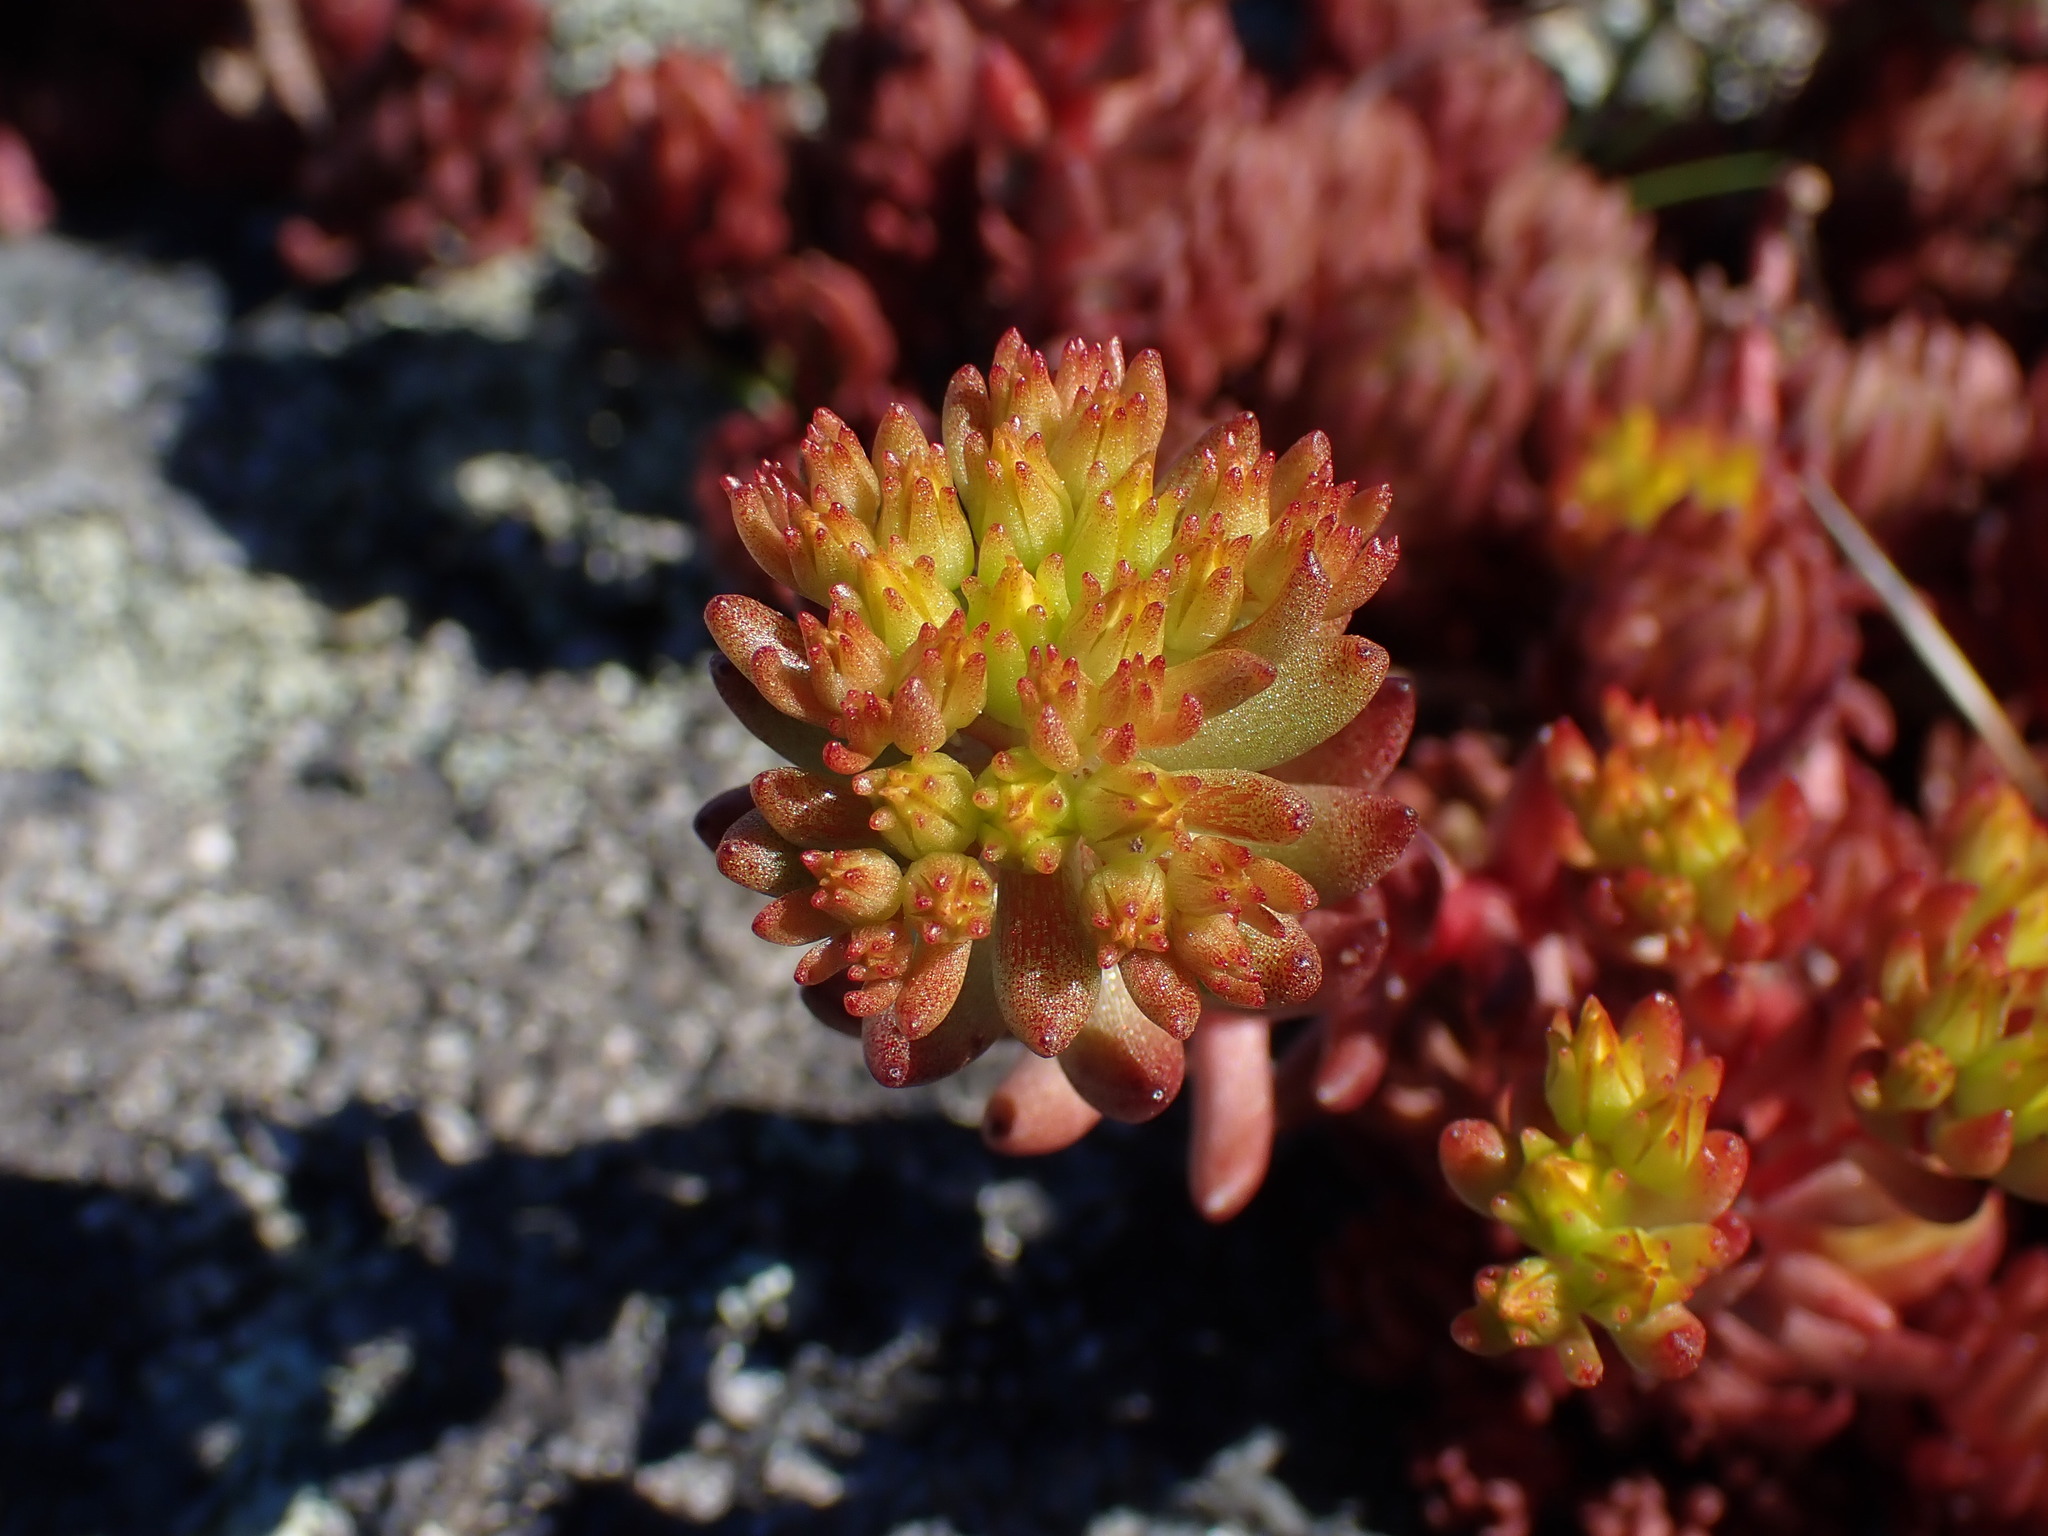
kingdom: Plantae
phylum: Tracheophyta
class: Magnoliopsida
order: Saxifragales
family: Crassulaceae
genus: Sedum
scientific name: Sedum lanceolatum
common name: Common stonecrop
